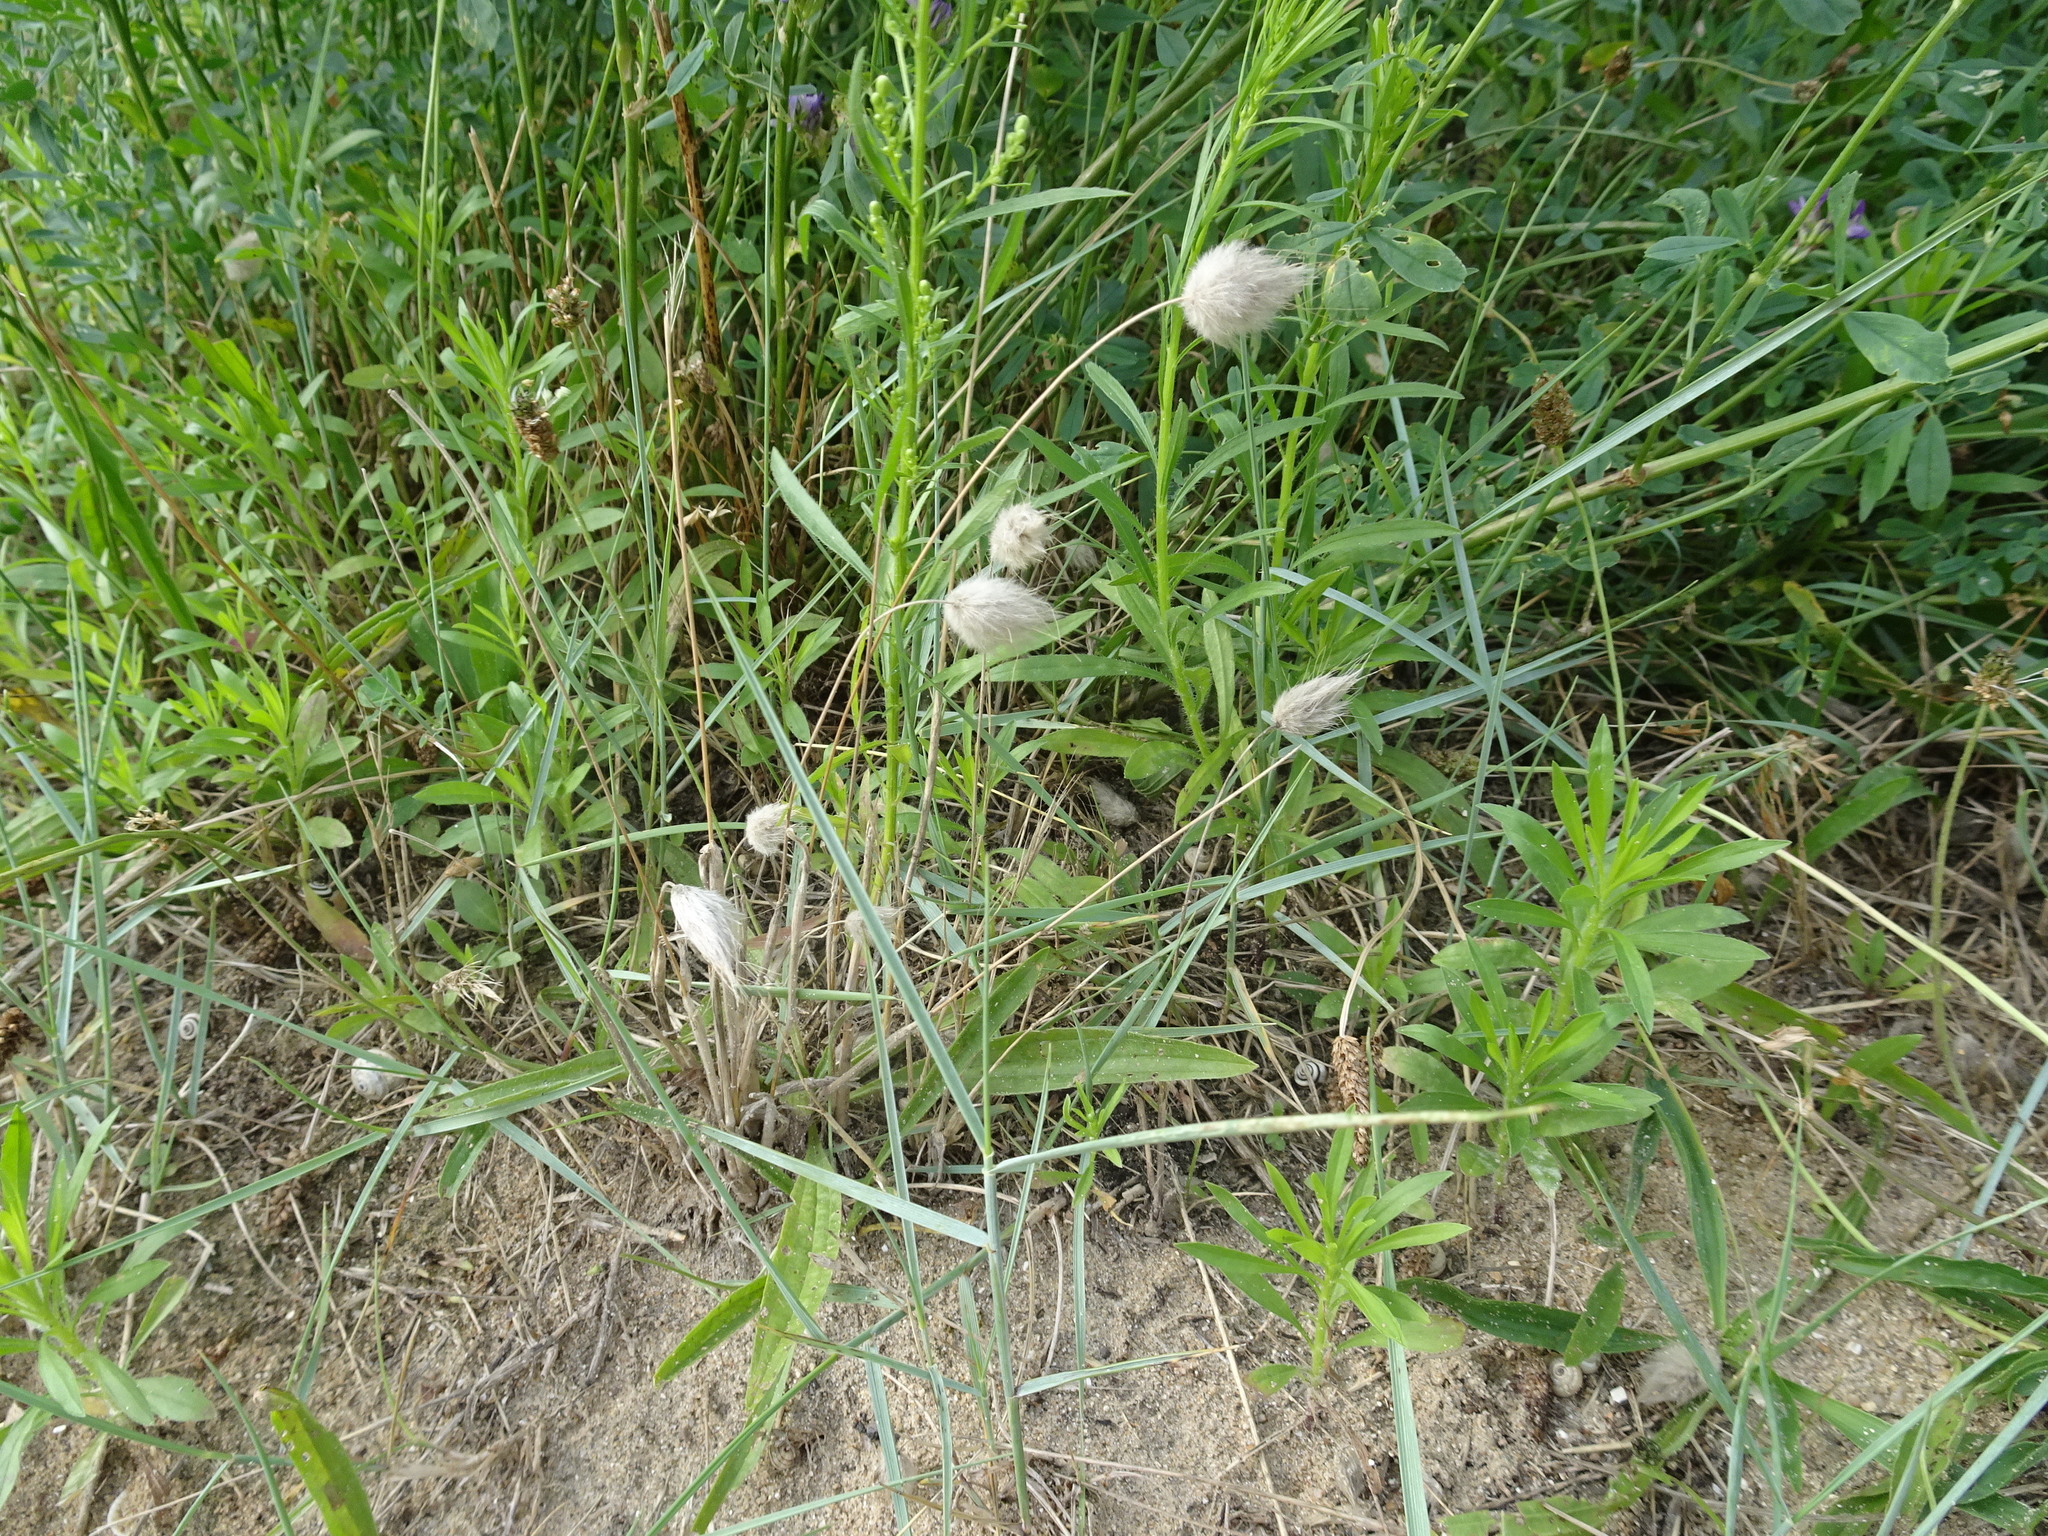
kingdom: Plantae
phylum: Tracheophyta
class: Liliopsida
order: Poales
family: Poaceae
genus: Lagurus
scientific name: Lagurus ovatus
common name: Hare's-tail
